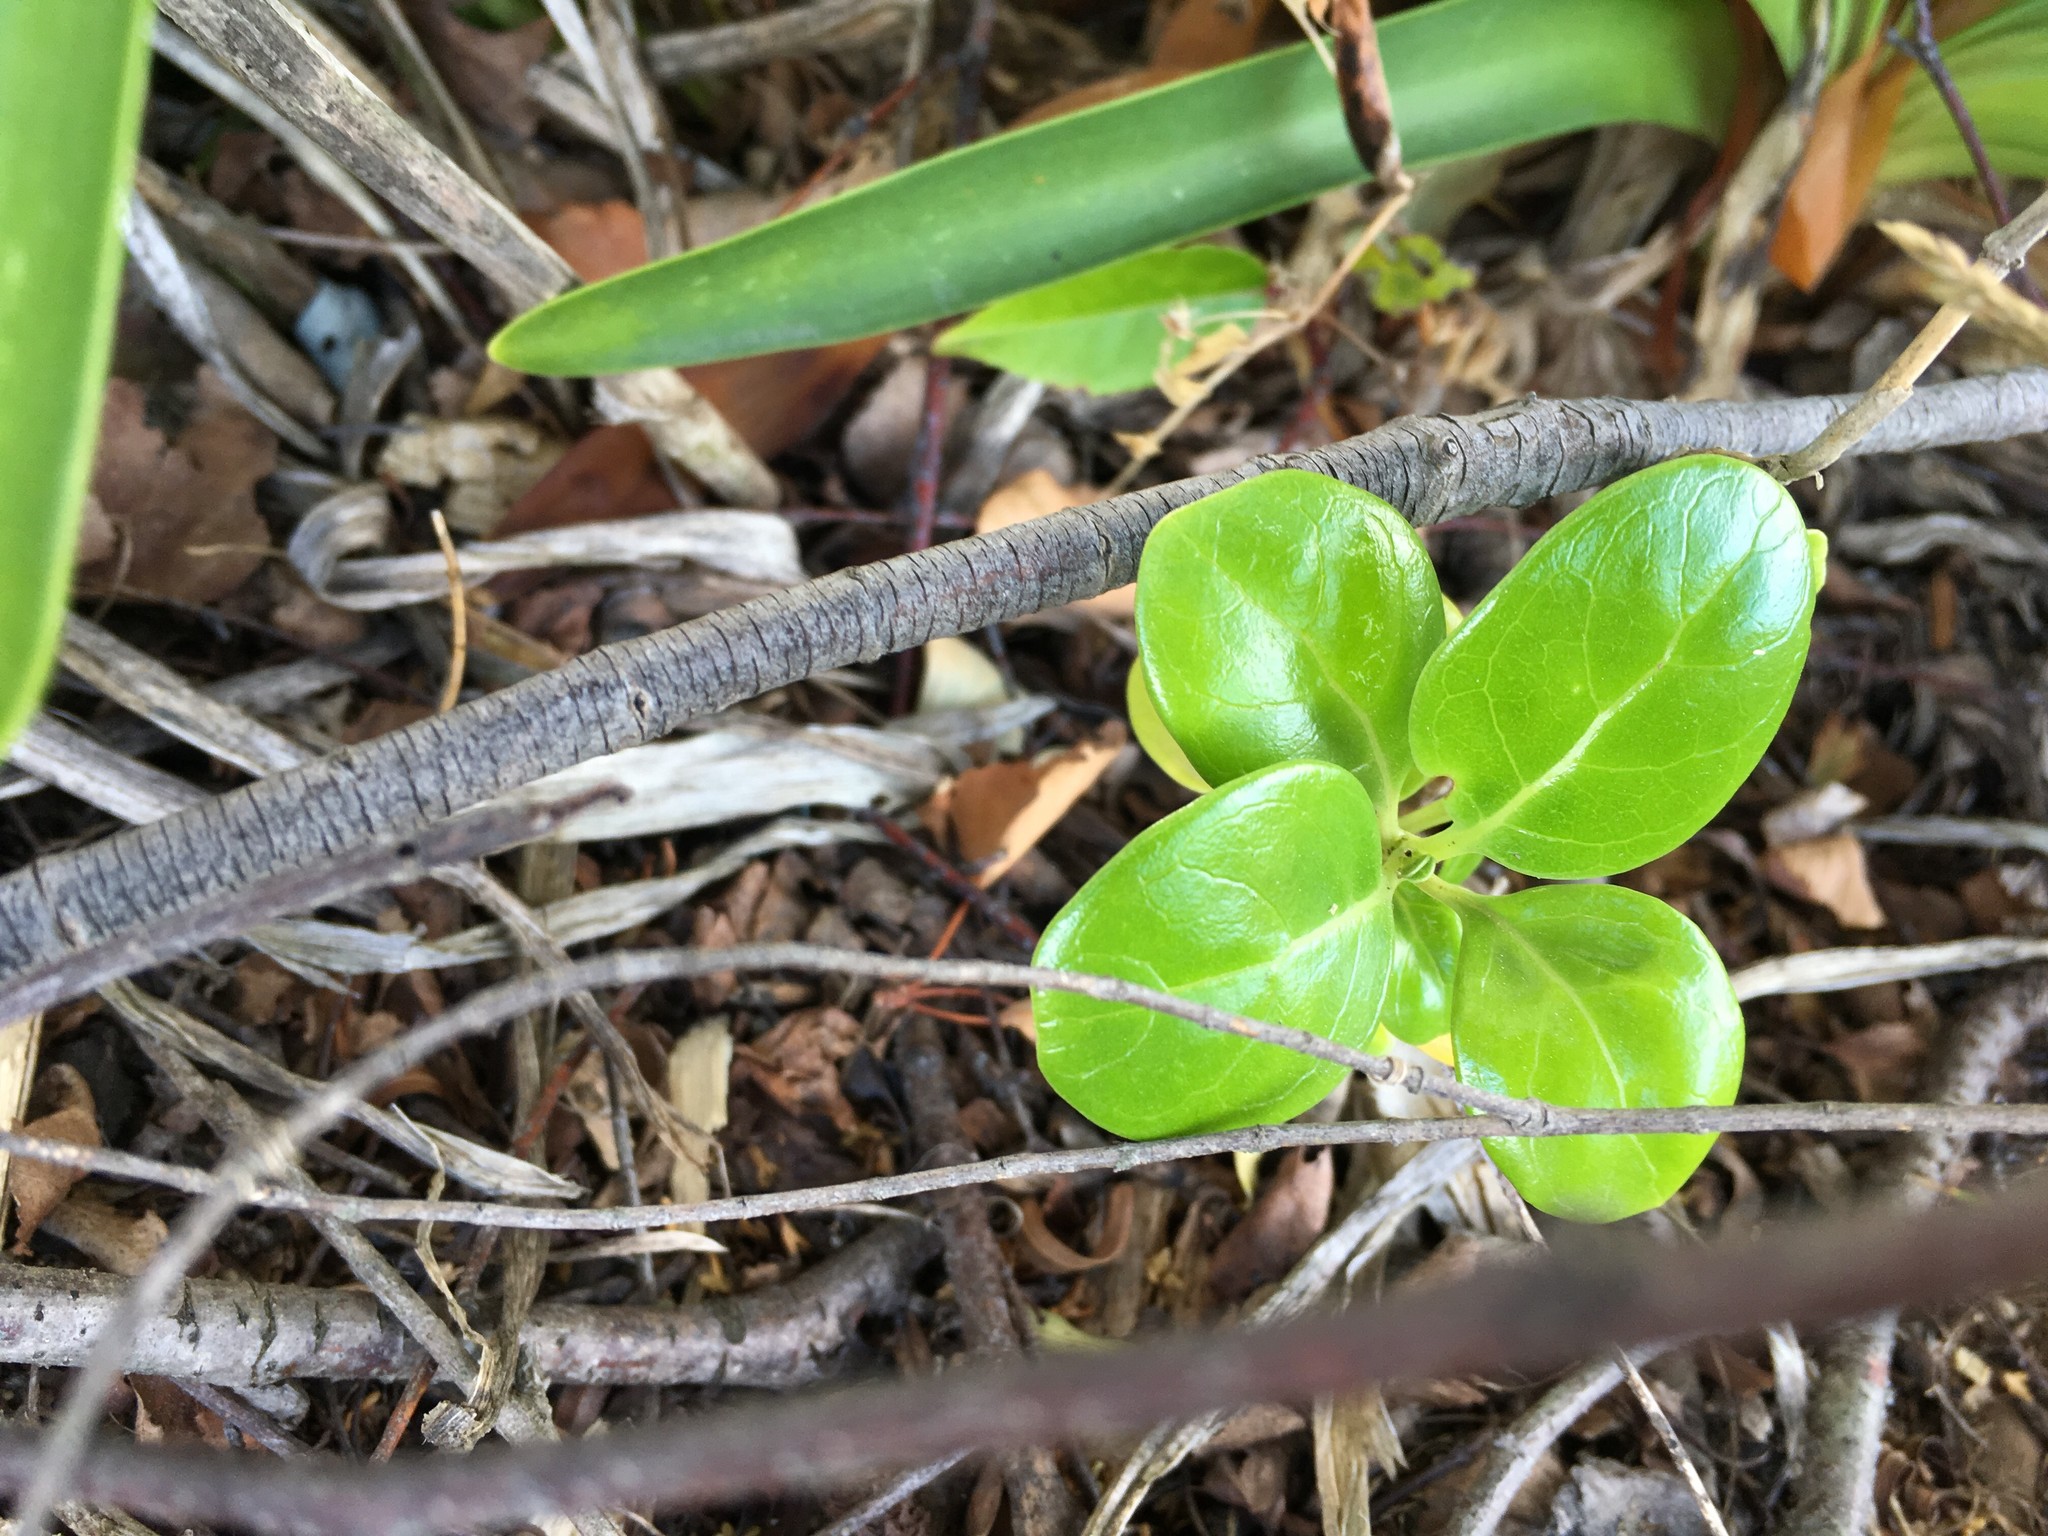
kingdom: Plantae
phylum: Tracheophyta
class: Magnoliopsida
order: Gentianales
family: Rubiaceae
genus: Coprosma
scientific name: Coprosma repens
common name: Tree bedstraw
